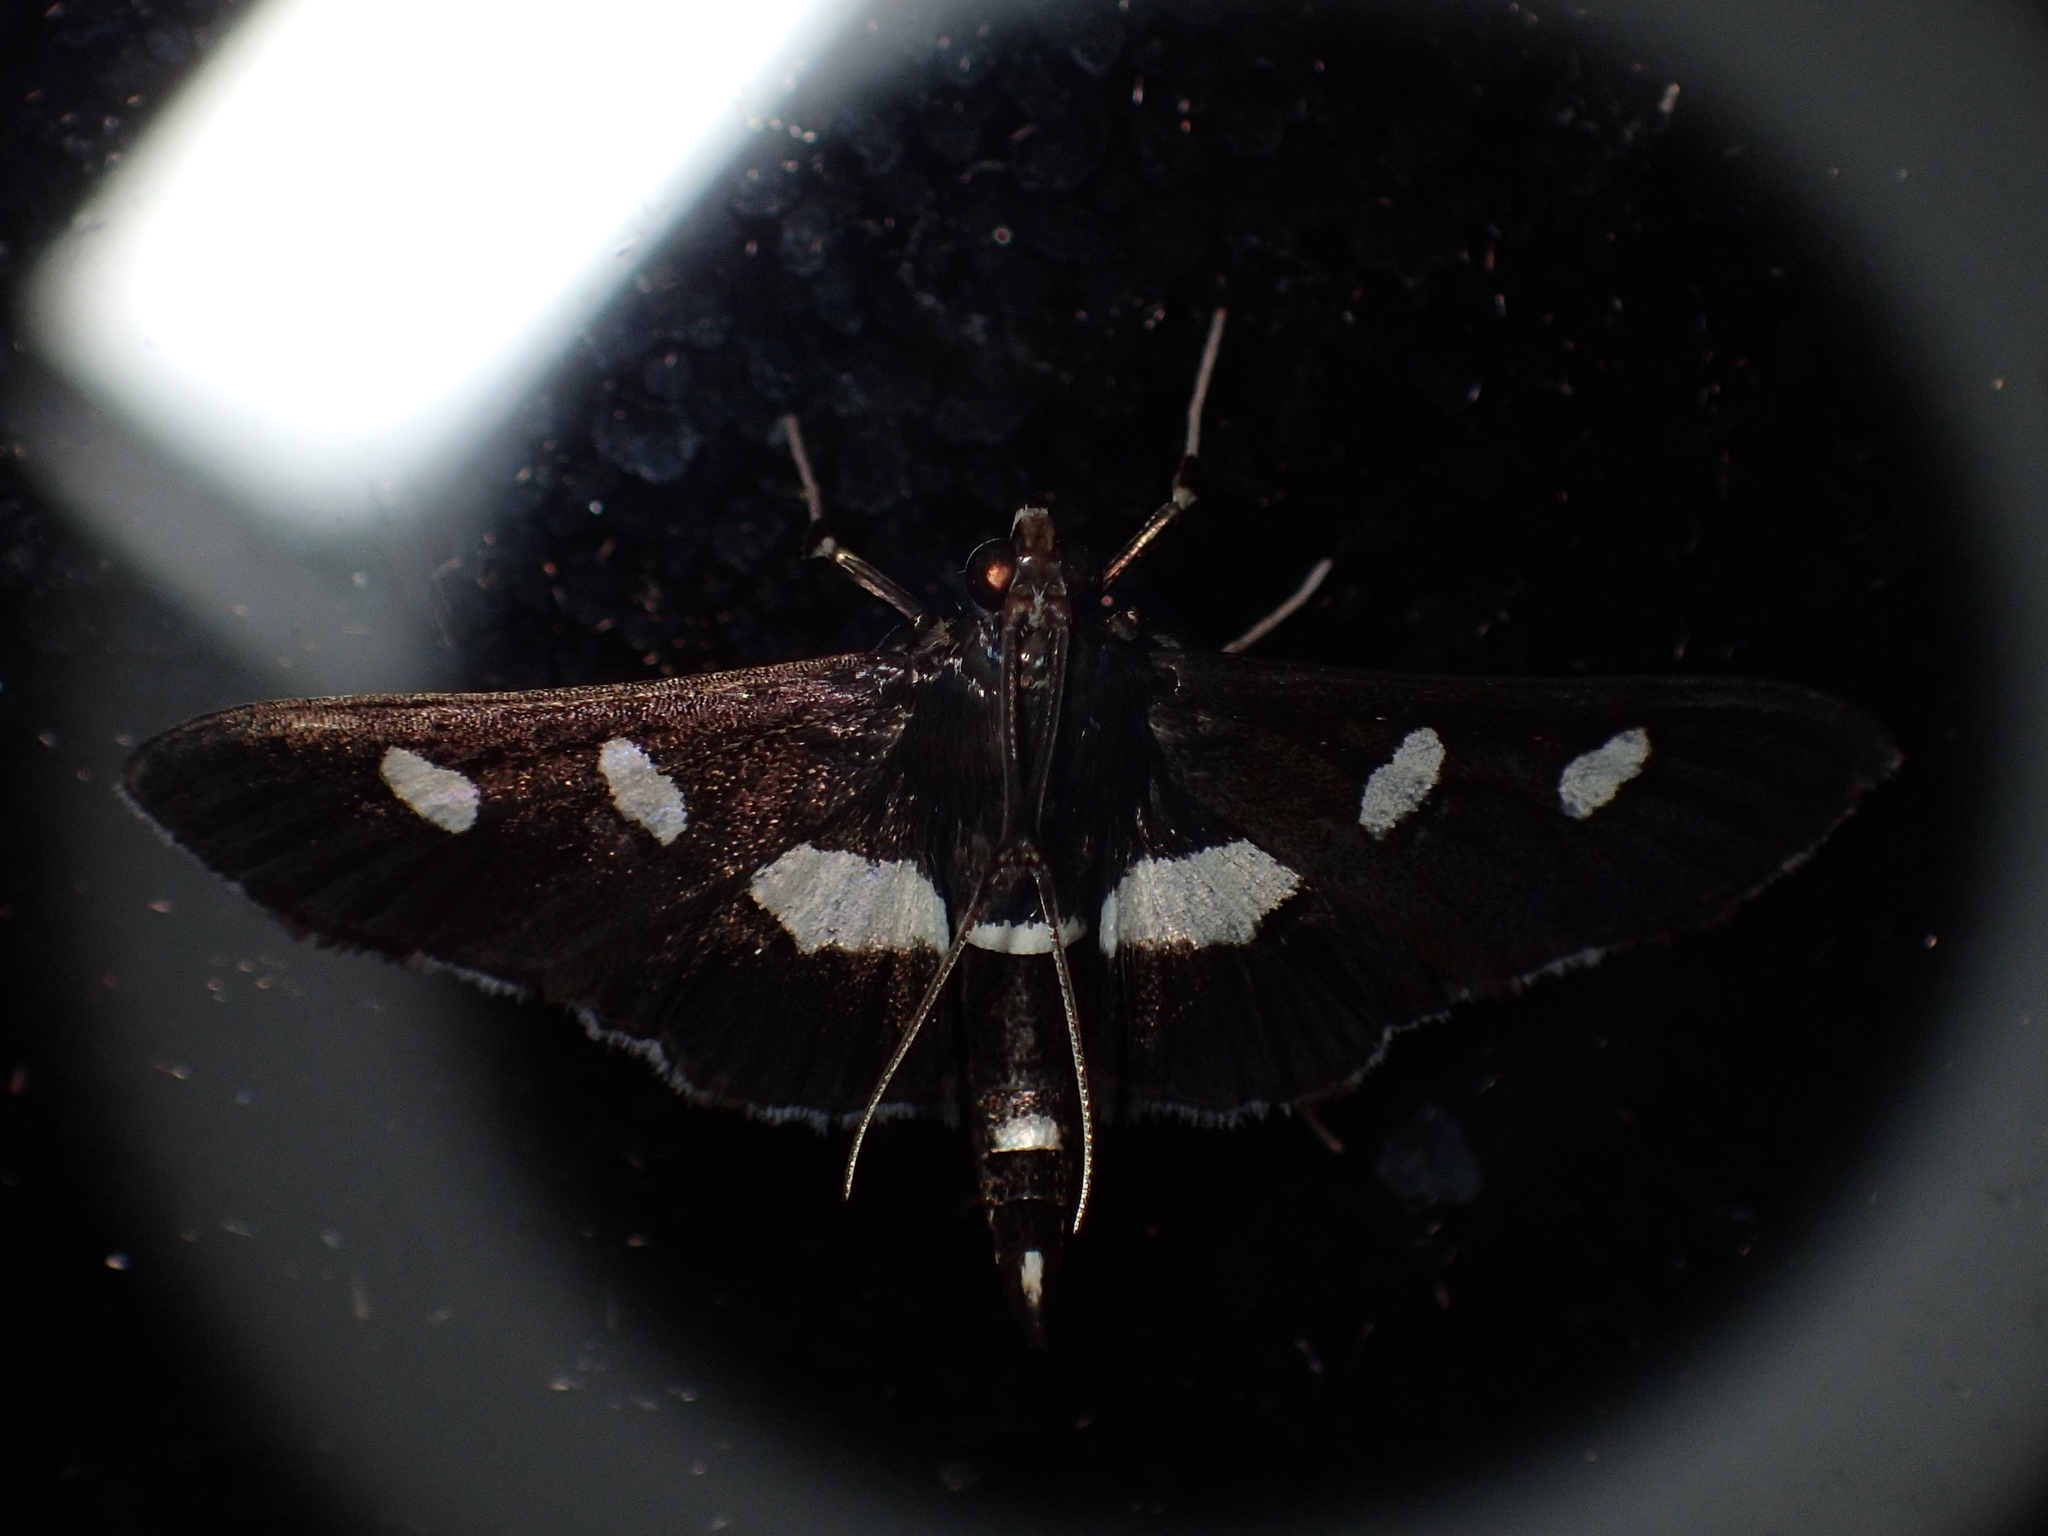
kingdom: Animalia
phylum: Arthropoda
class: Insecta
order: Lepidoptera
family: Crambidae
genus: Desmia
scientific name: Desmia
